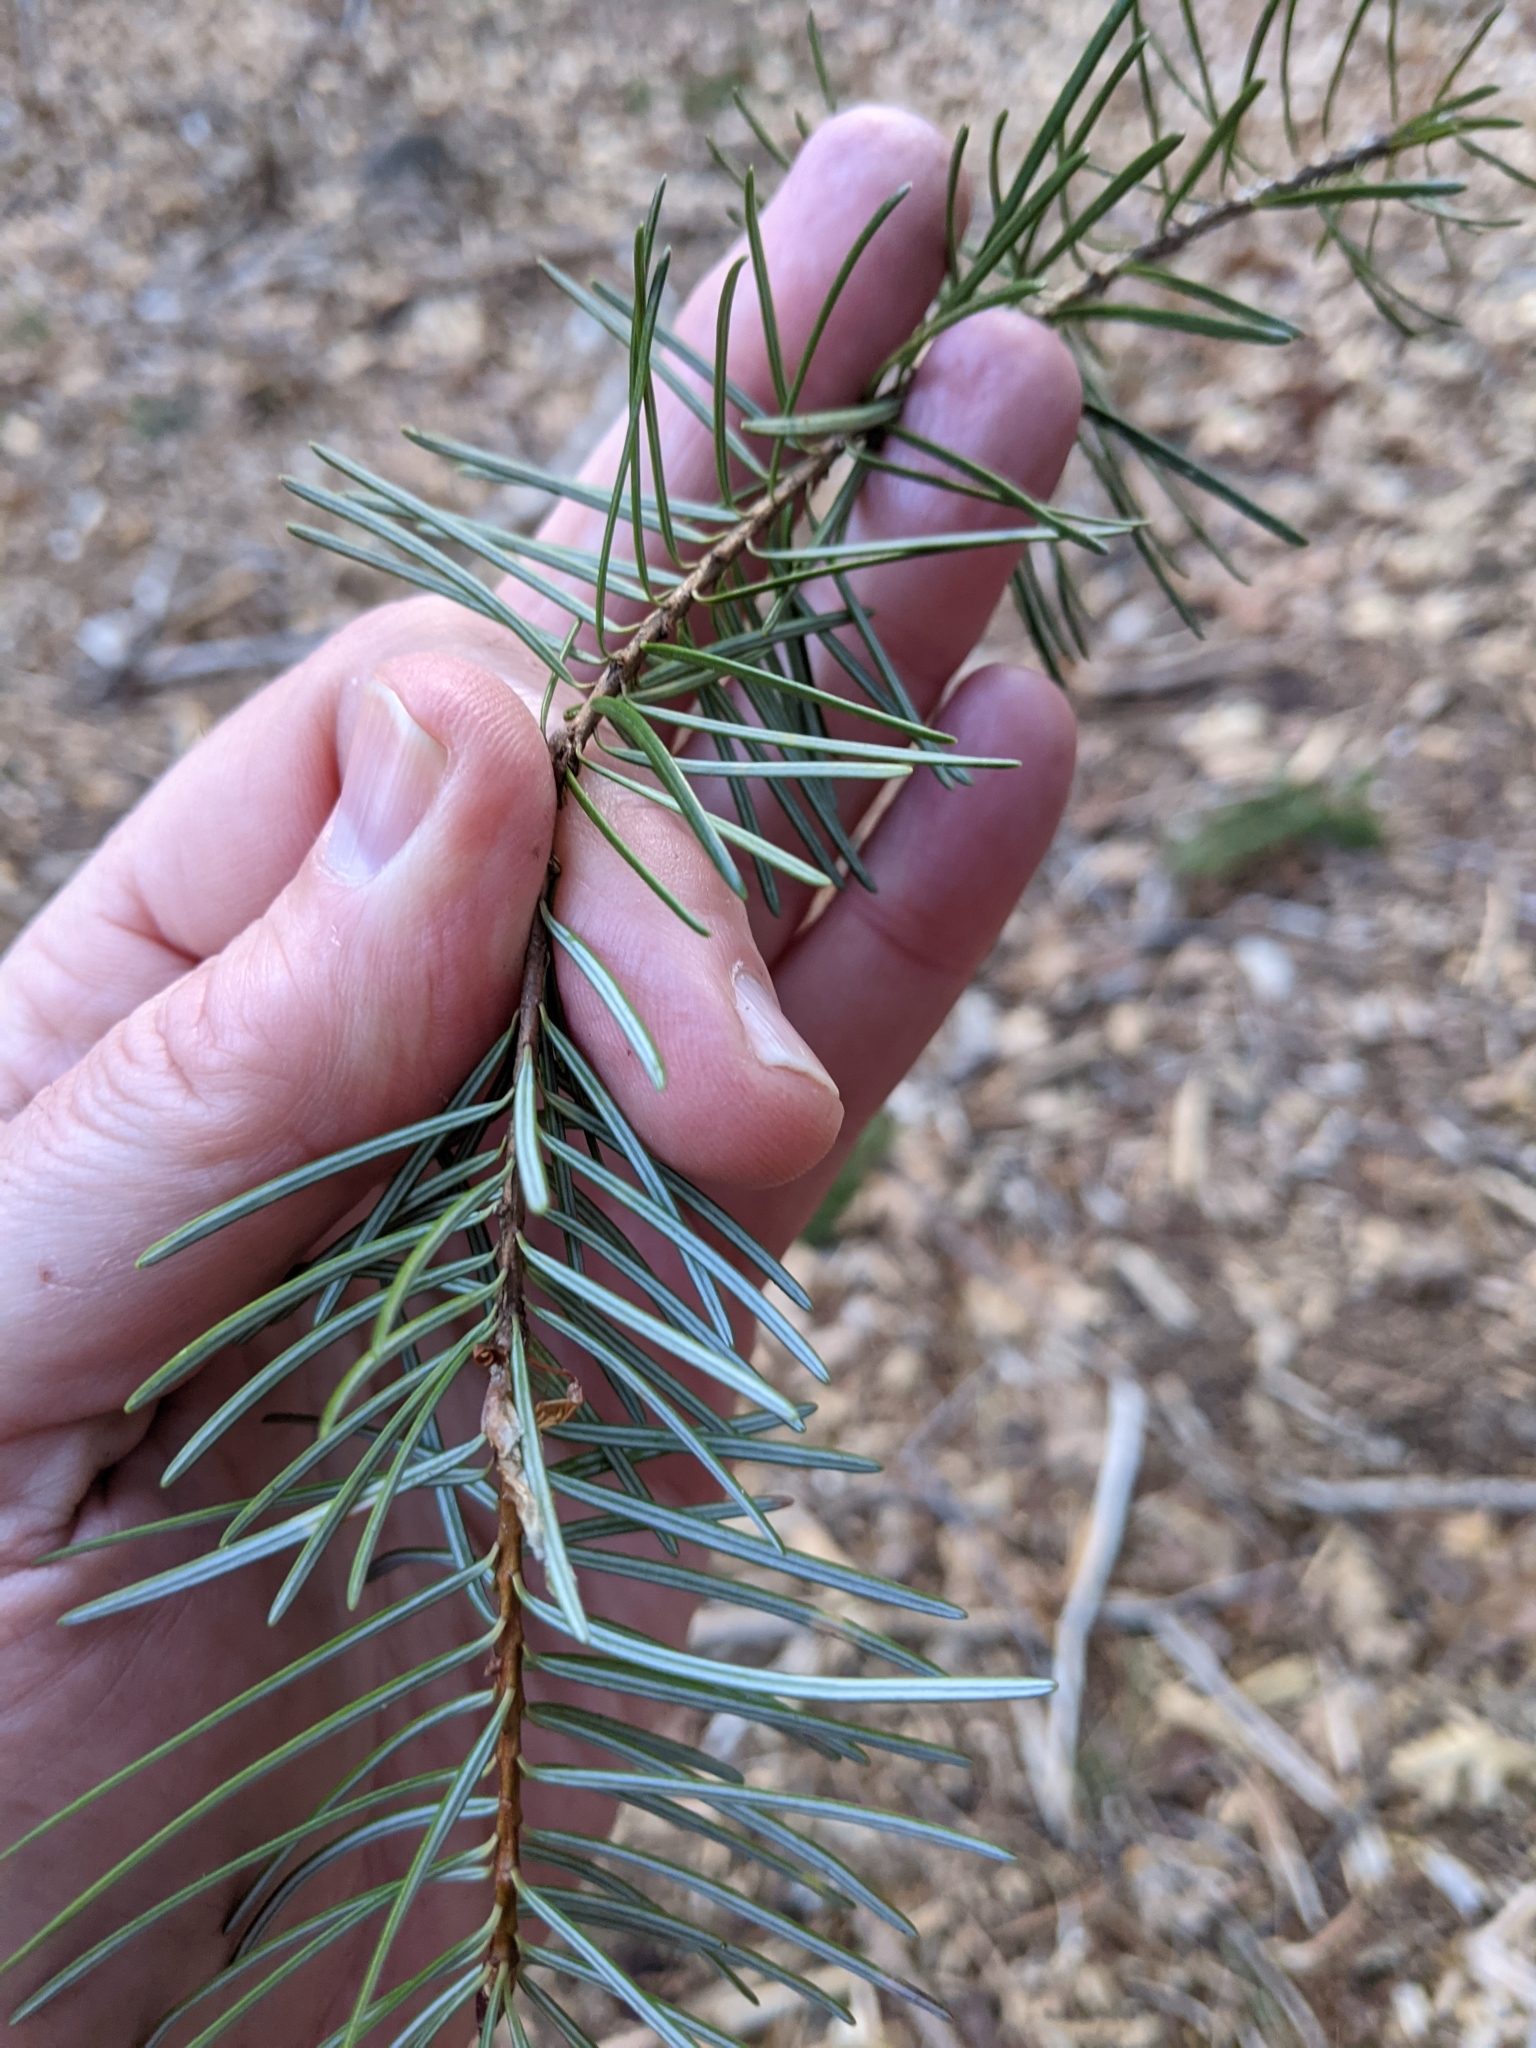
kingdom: Plantae
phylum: Tracheophyta
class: Pinopsida
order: Pinales
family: Pinaceae
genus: Pseudotsuga
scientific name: Pseudotsuga menziesii
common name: Douglas fir
